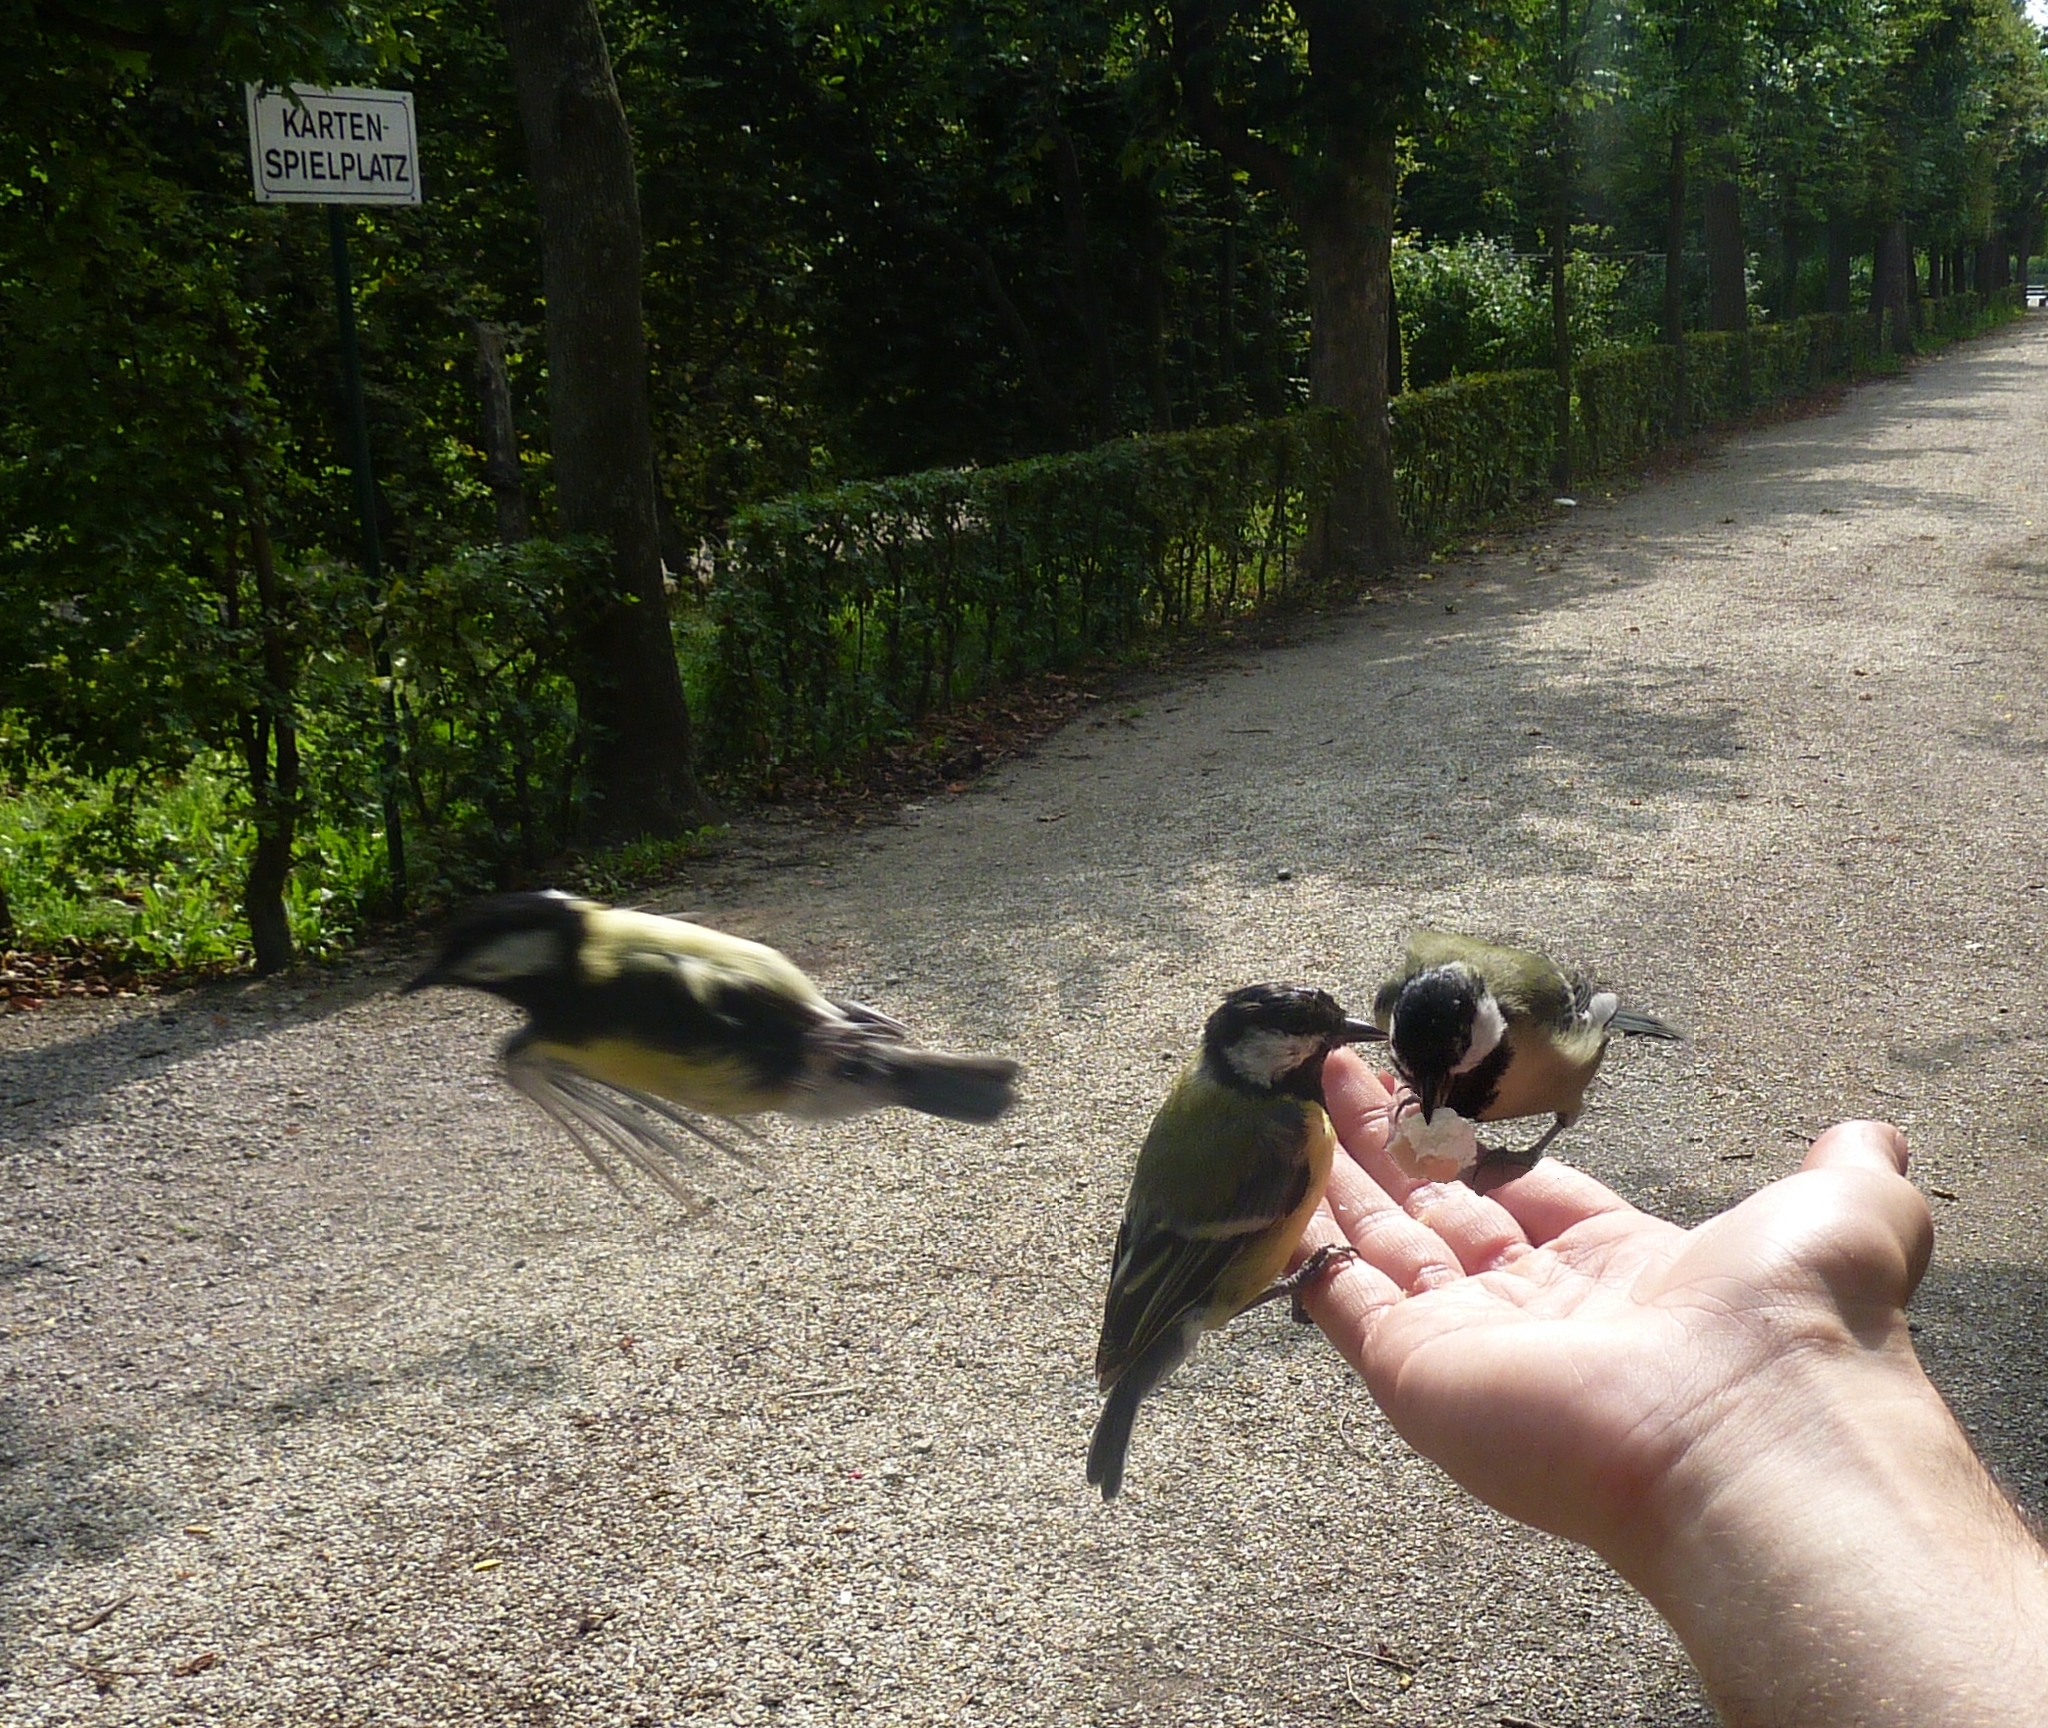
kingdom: Animalia
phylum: Chordata
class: Aves
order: Passeriformes
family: Paridae
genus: Parus
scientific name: Parus major
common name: Great tit
